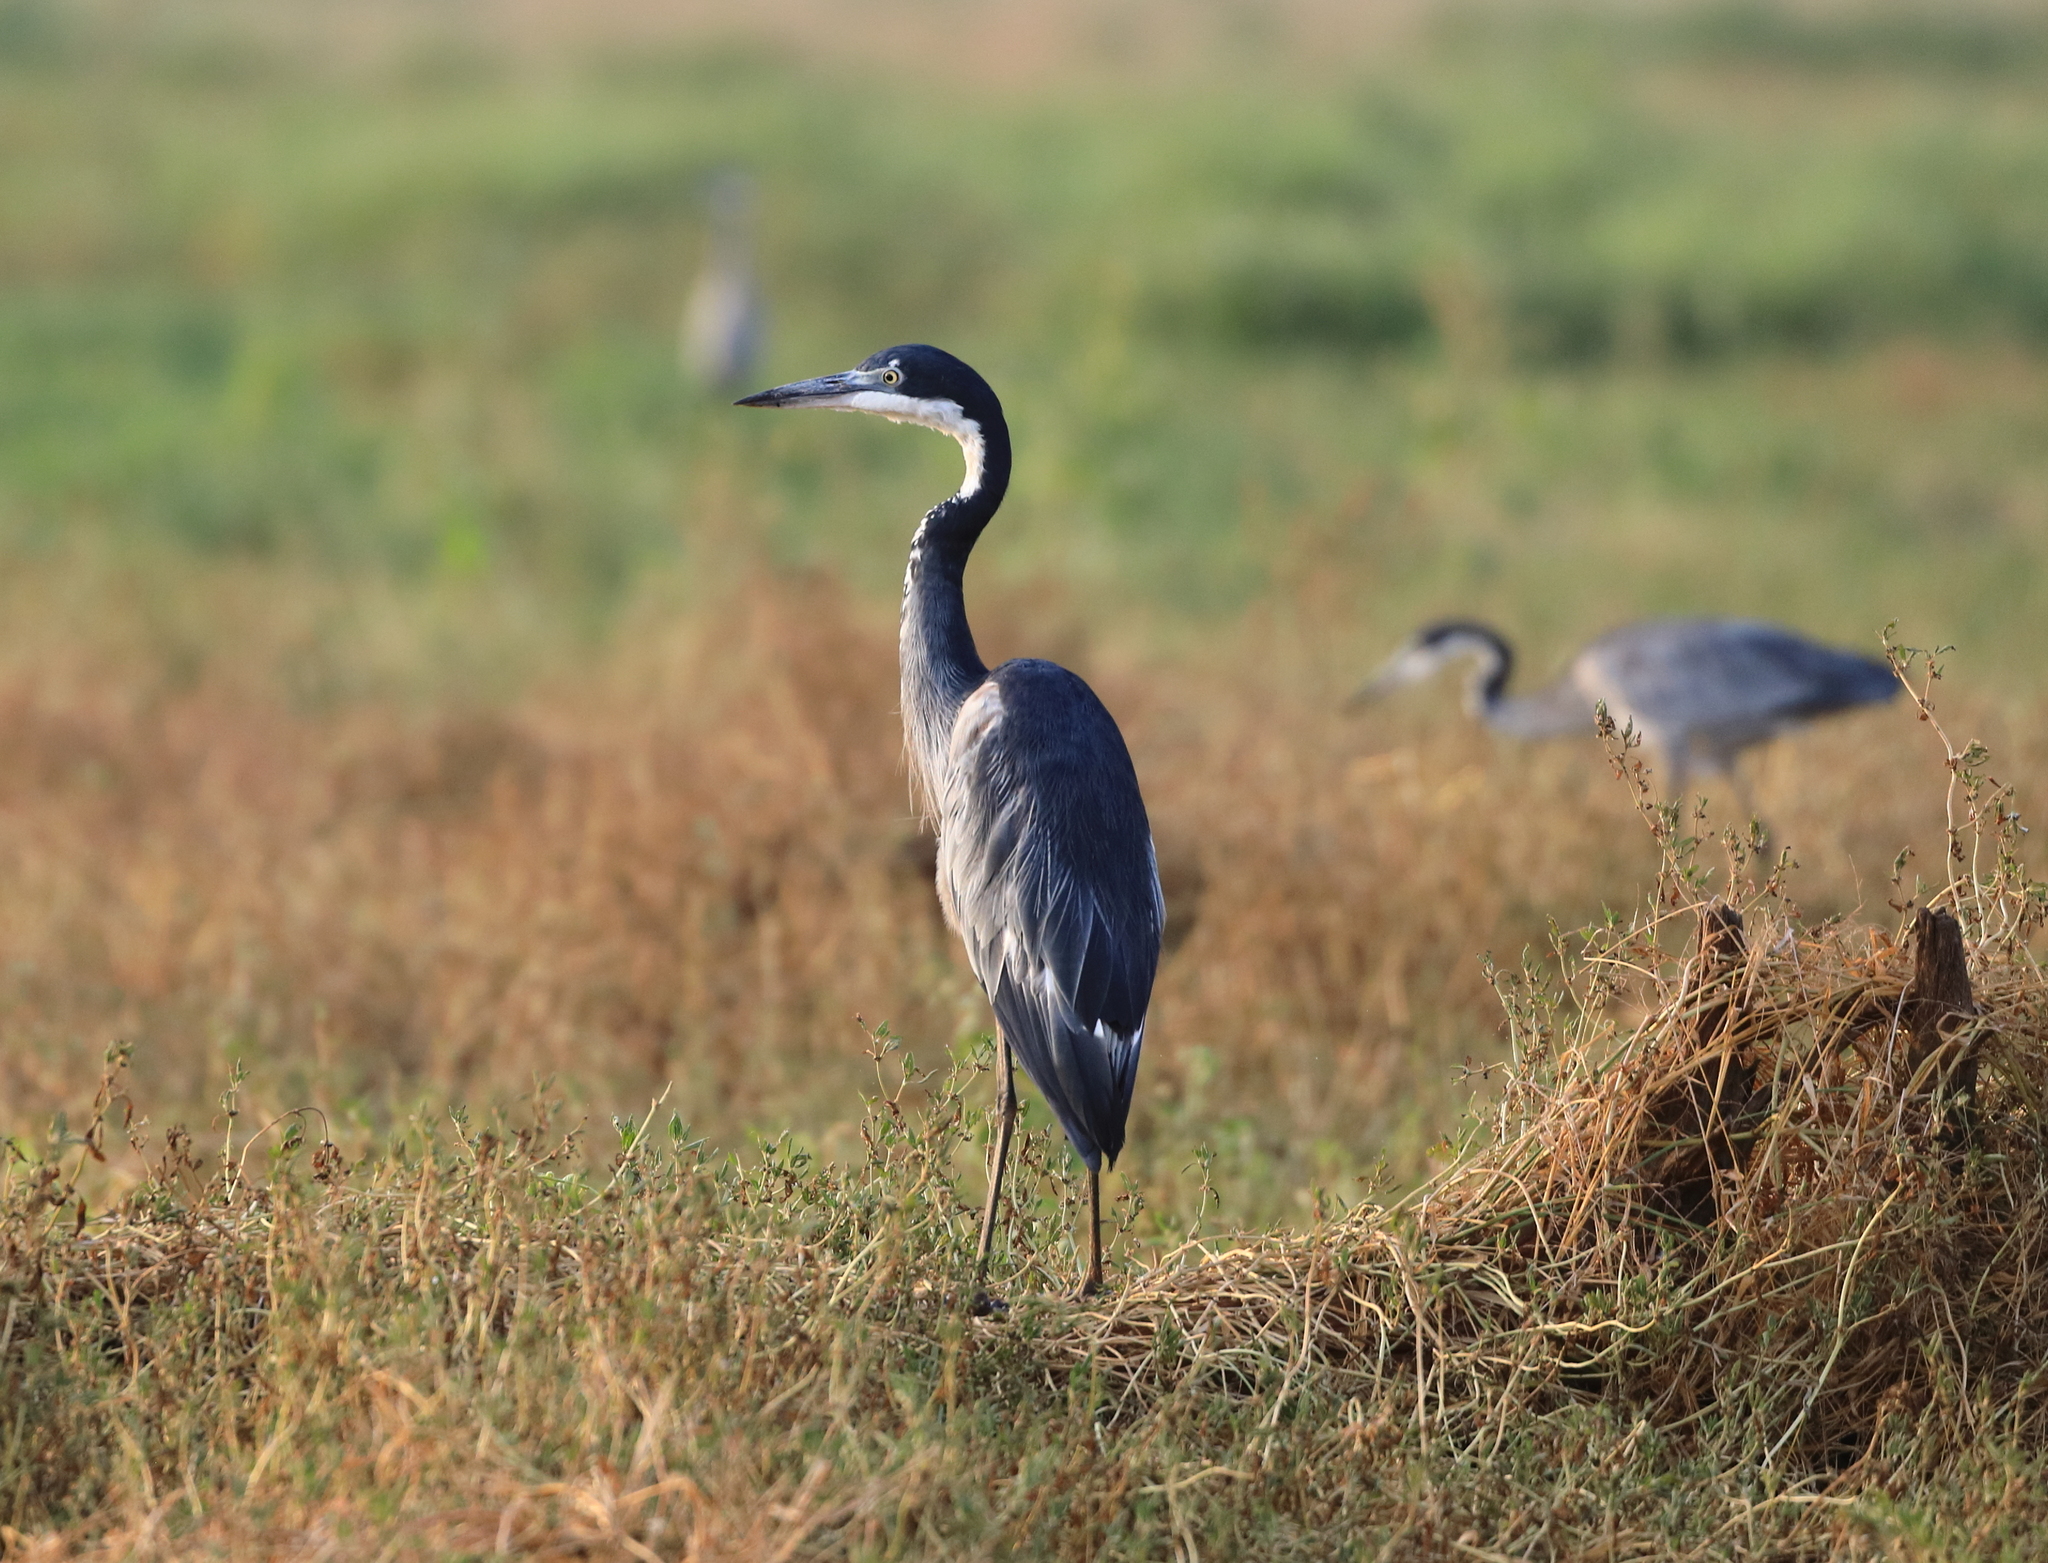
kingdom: Animalia
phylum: Chordata
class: Aves
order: Pelecaniformes
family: Ardeidae
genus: Ardea
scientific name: Ardea melanocephala
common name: Black-headed heron
